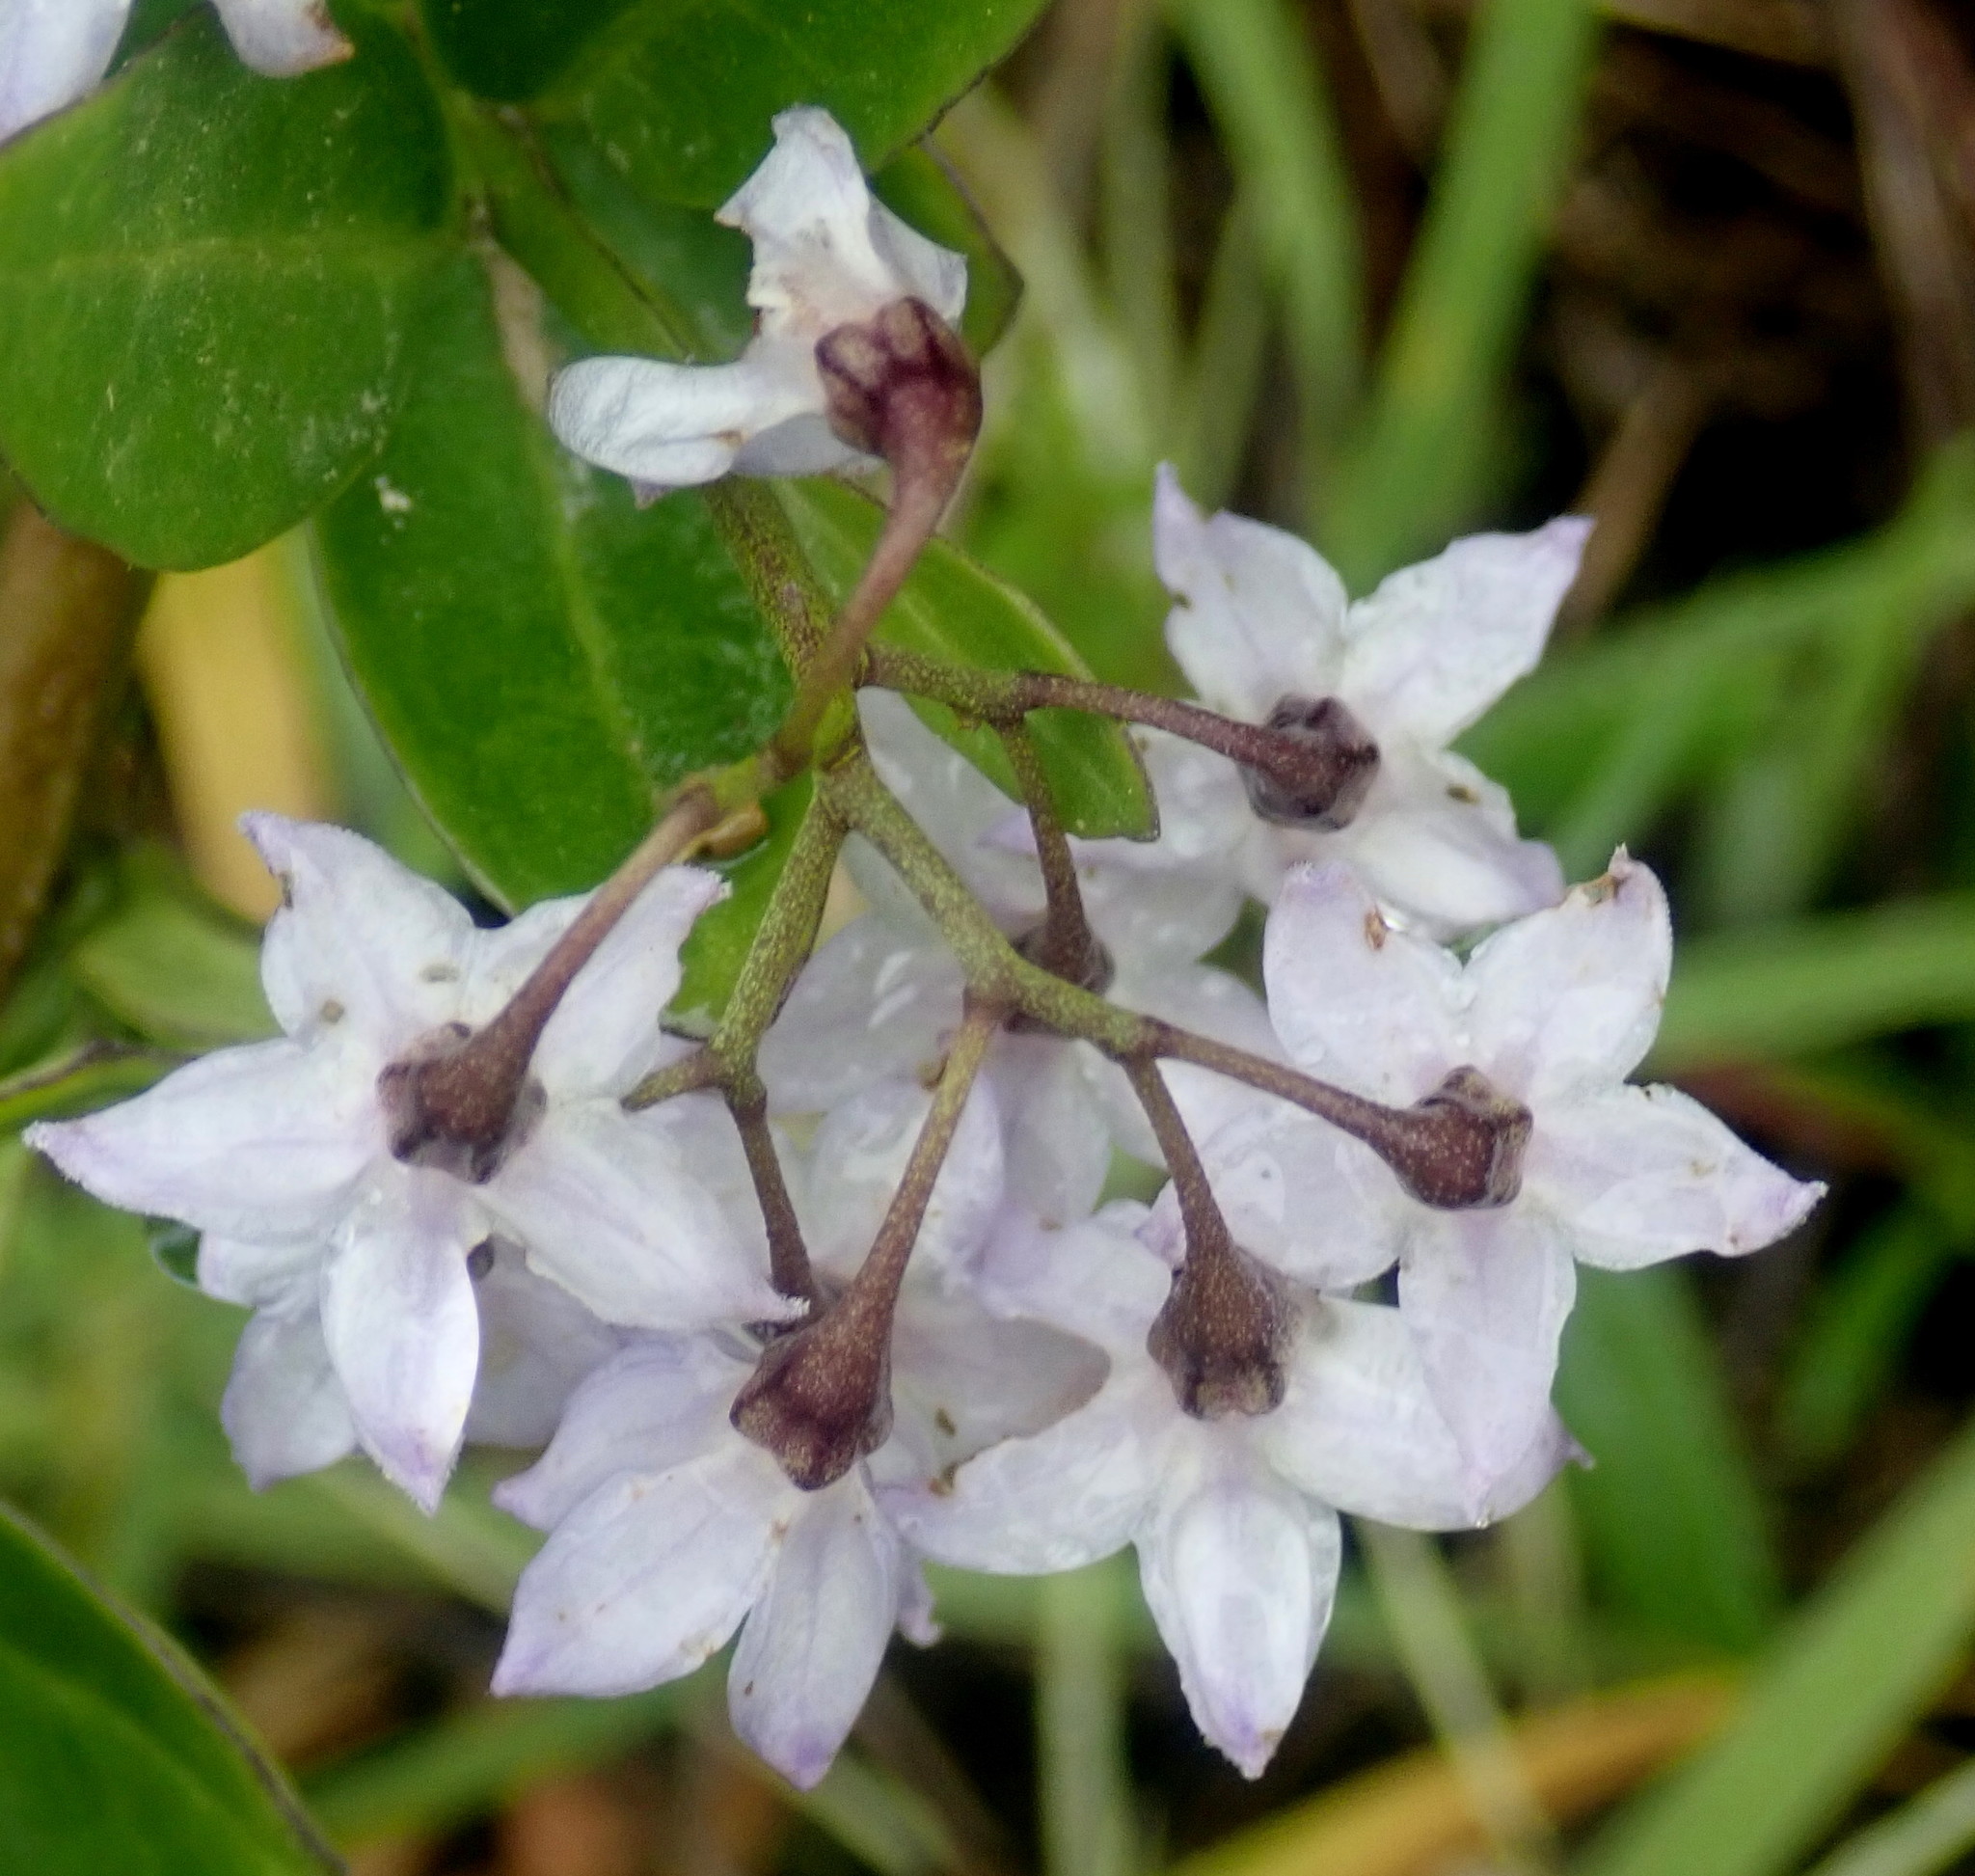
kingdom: Plantae
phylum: Tracheophyta
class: Magnoliopsida
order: Solanales
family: Solanaceae
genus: Solanum
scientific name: Solanum africanum
